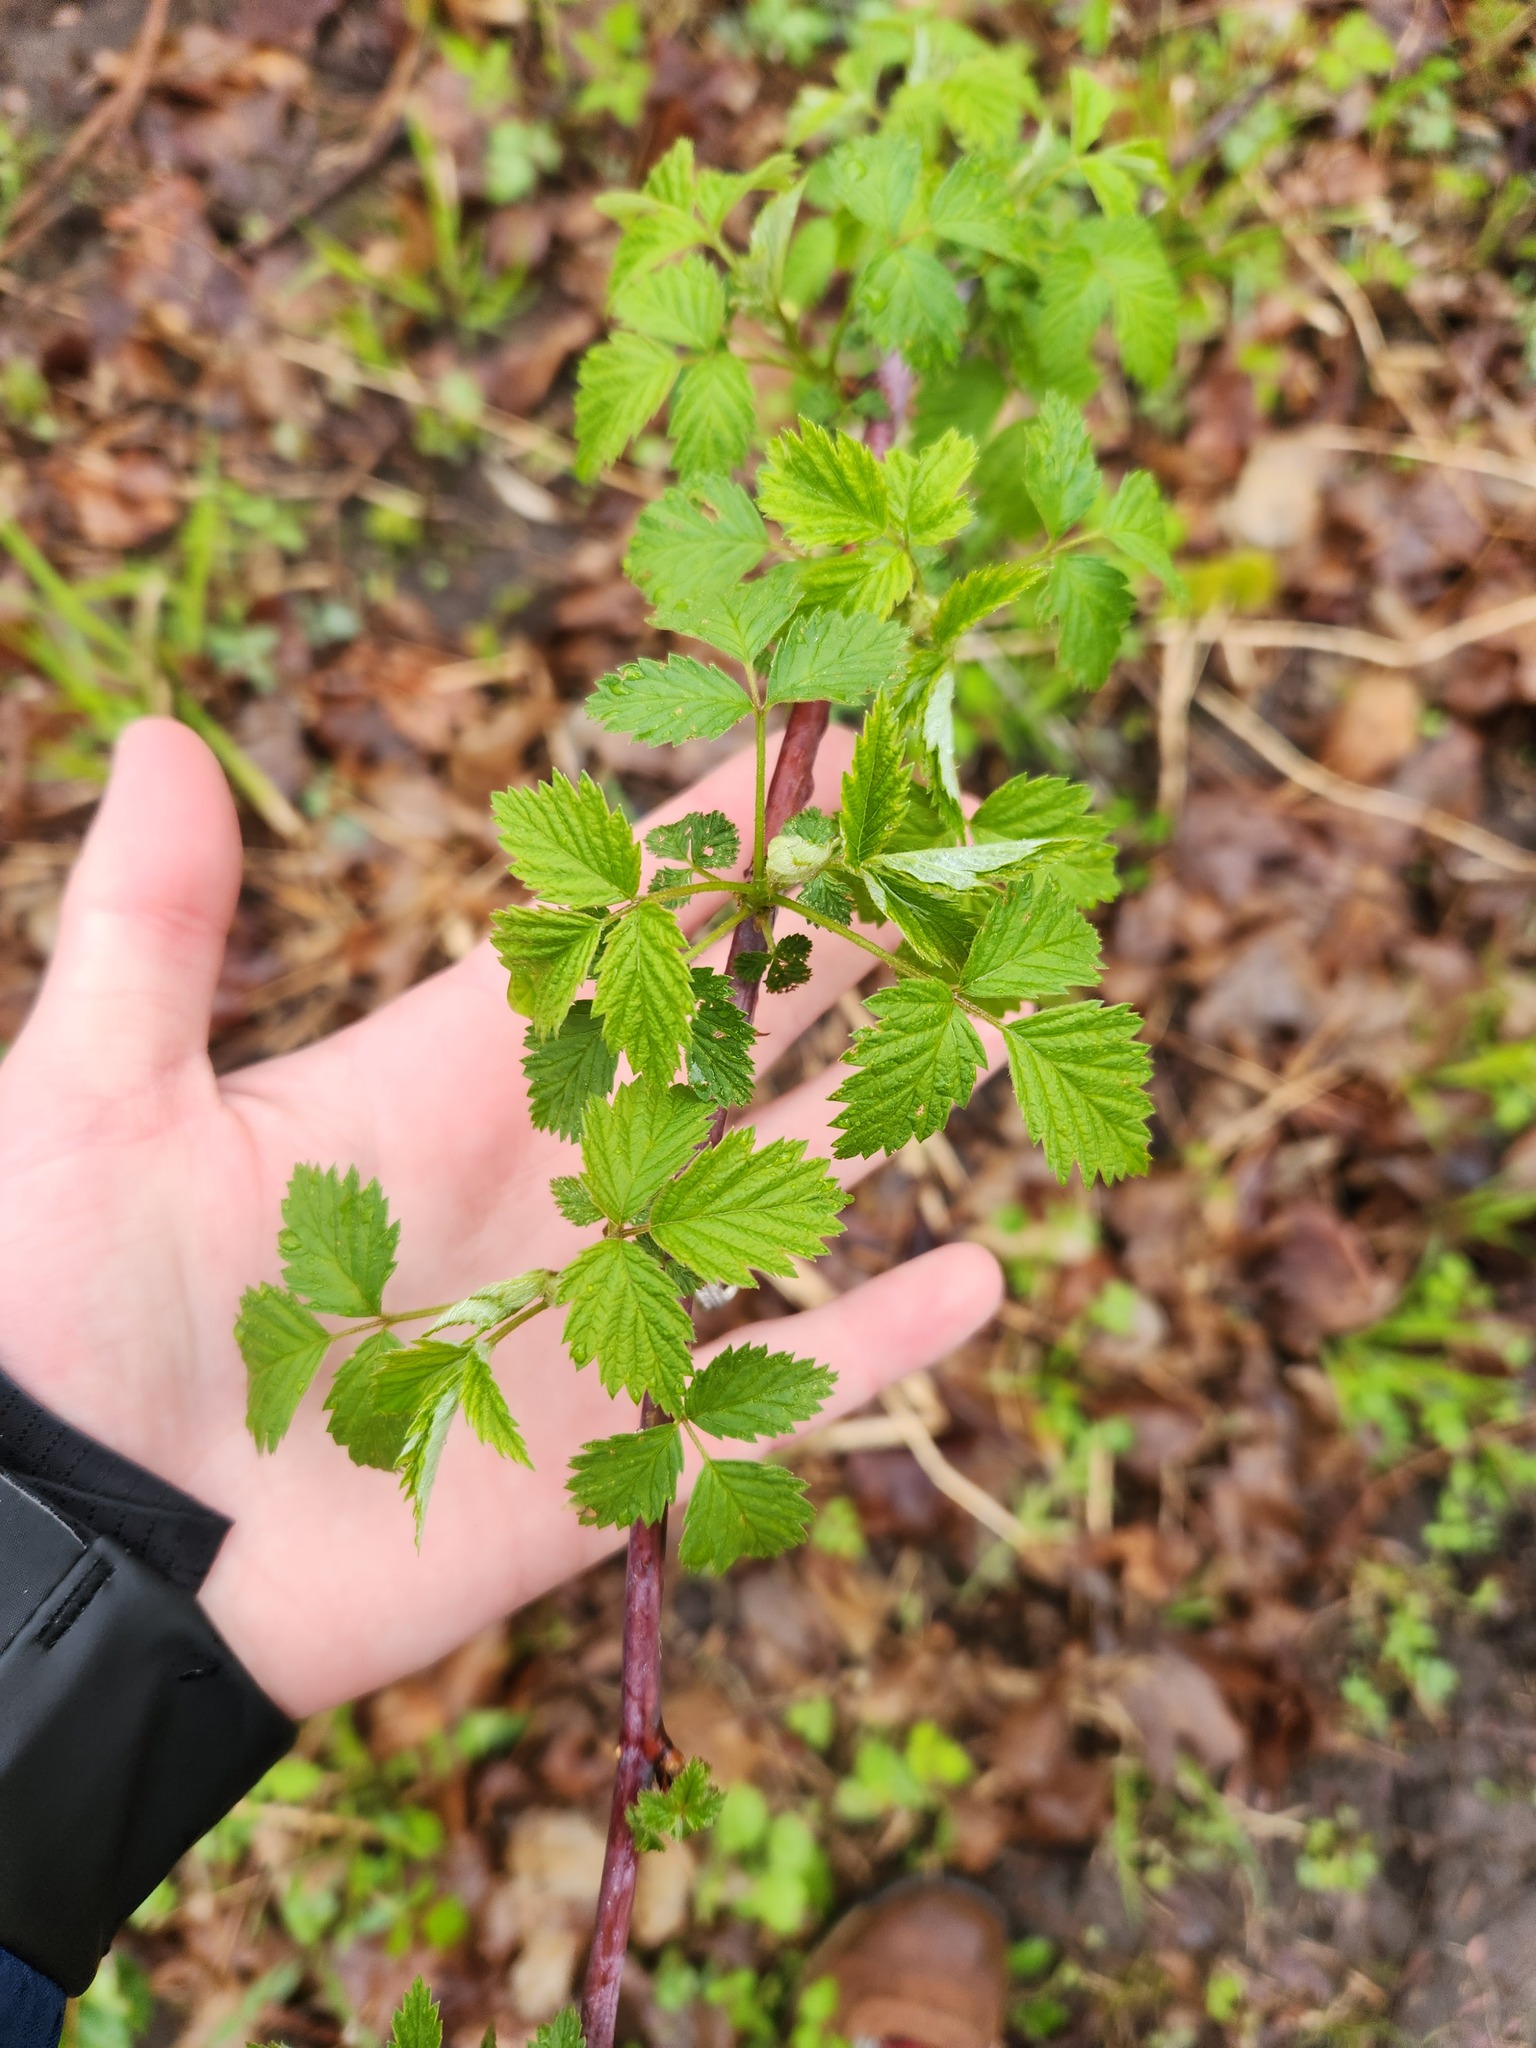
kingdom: Plantae
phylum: Tracheophyta
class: Magnoliopsida
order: Rosales
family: Rosaceae
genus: Rubus
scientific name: Rubus occidentalis
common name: Black raspberry
